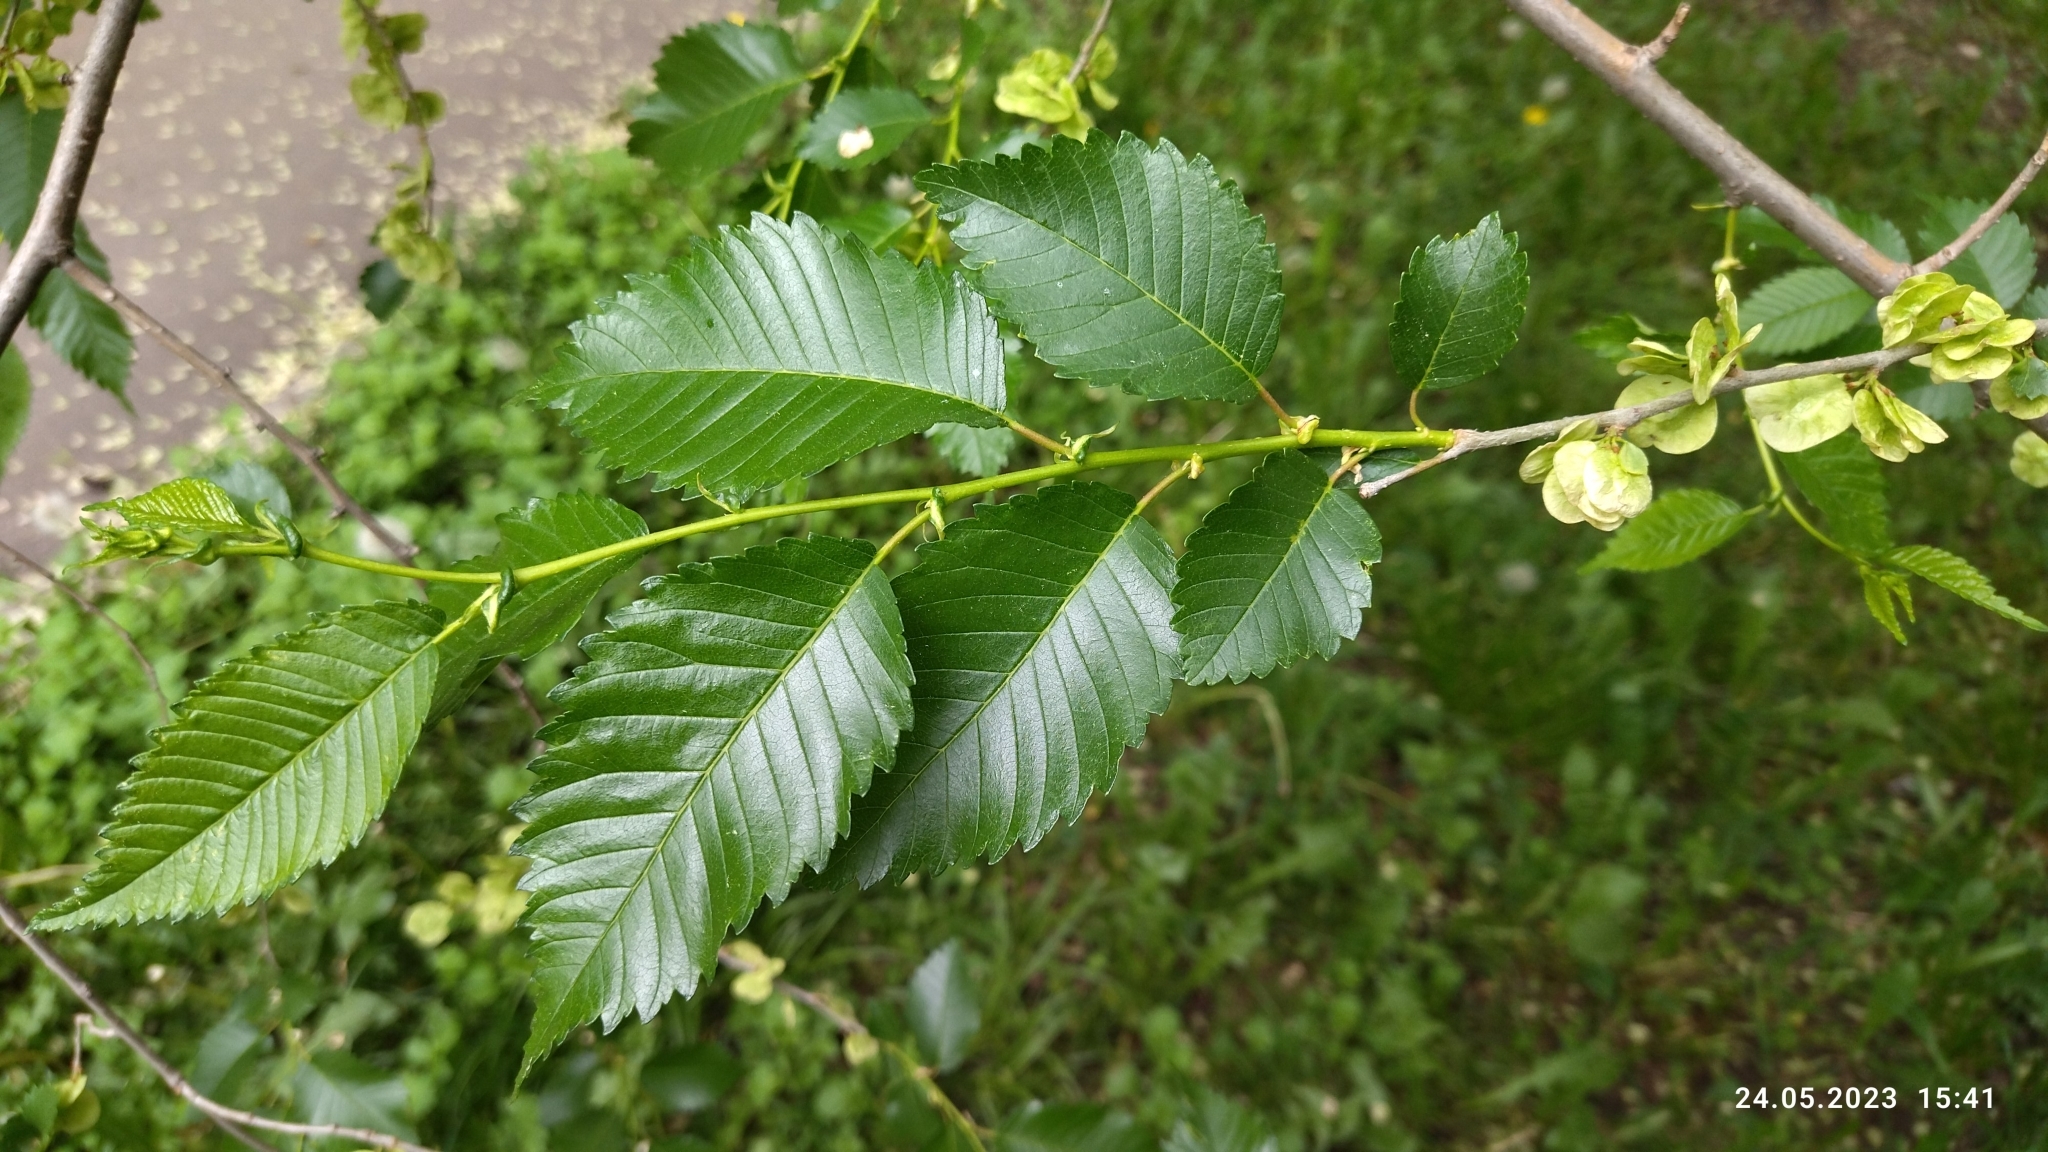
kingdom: Plantae
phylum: Tracheophyta
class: Magnoliopsida
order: Rosales
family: Ulmaceae
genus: Ulmus
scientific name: Ulmus pumila
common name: Siberian elm
